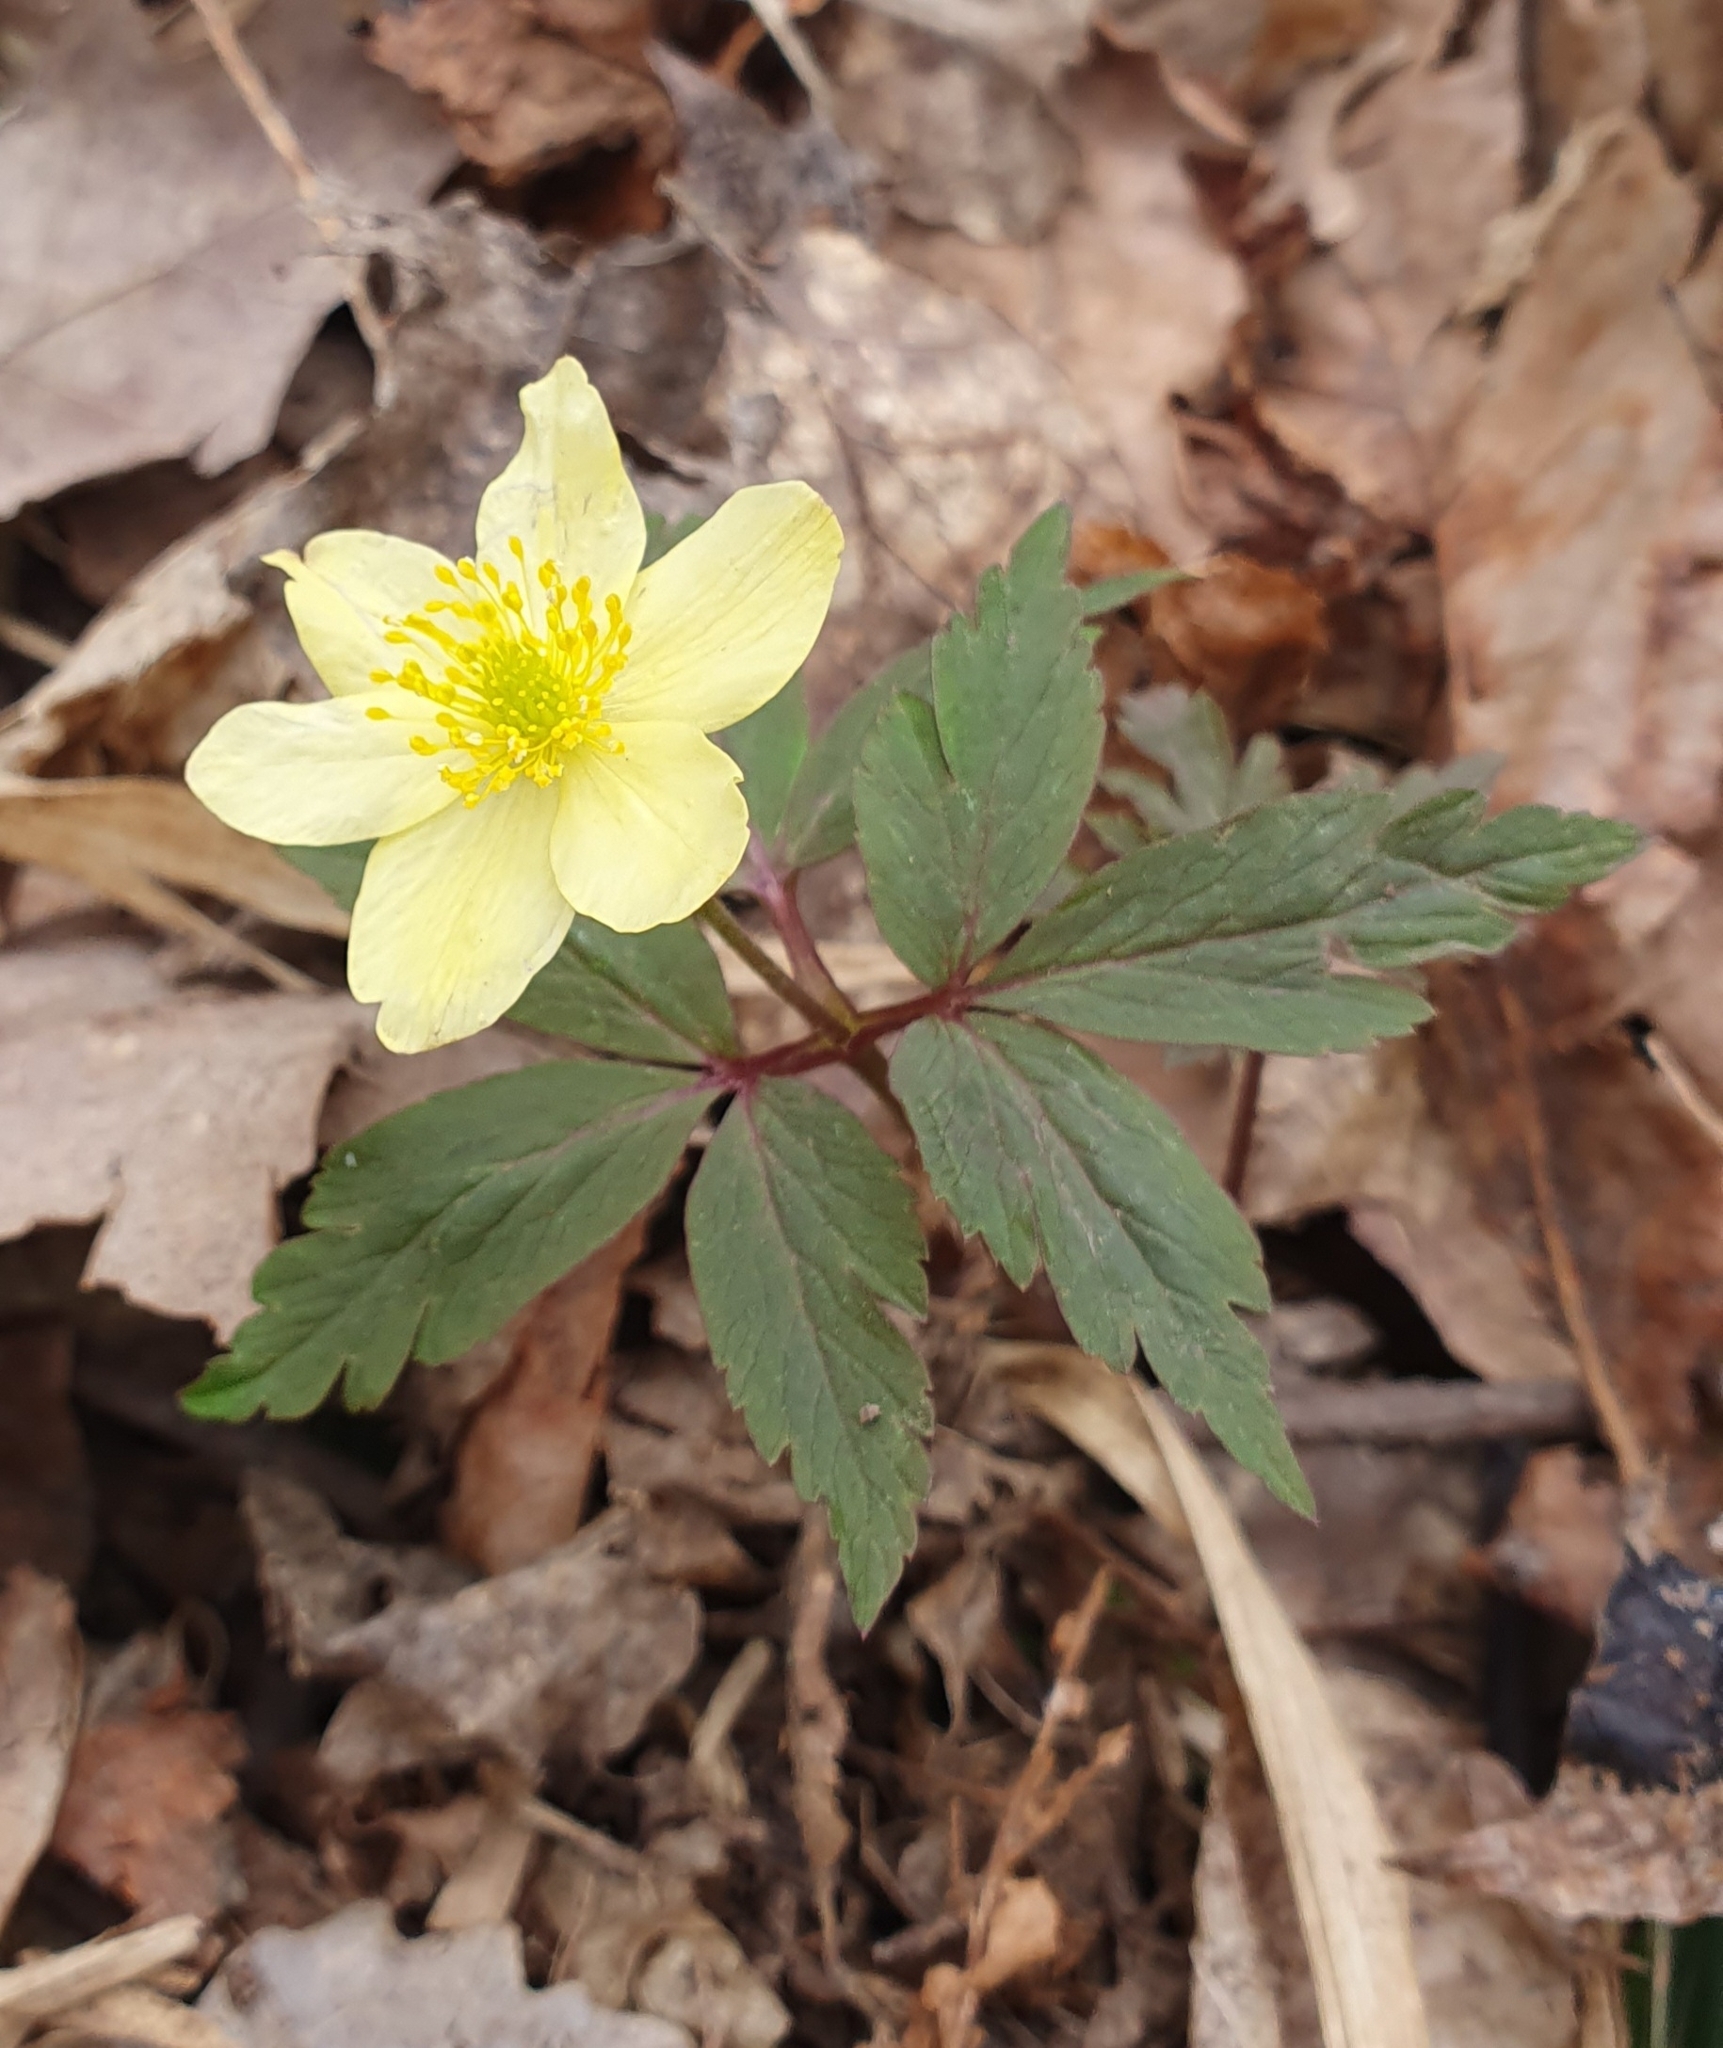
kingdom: Plantae
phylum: Tracheophyta
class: Magnoliopsida
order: Ranunculales
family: Ranunculaceae
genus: Anemone
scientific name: Anemone korzchinskyi
